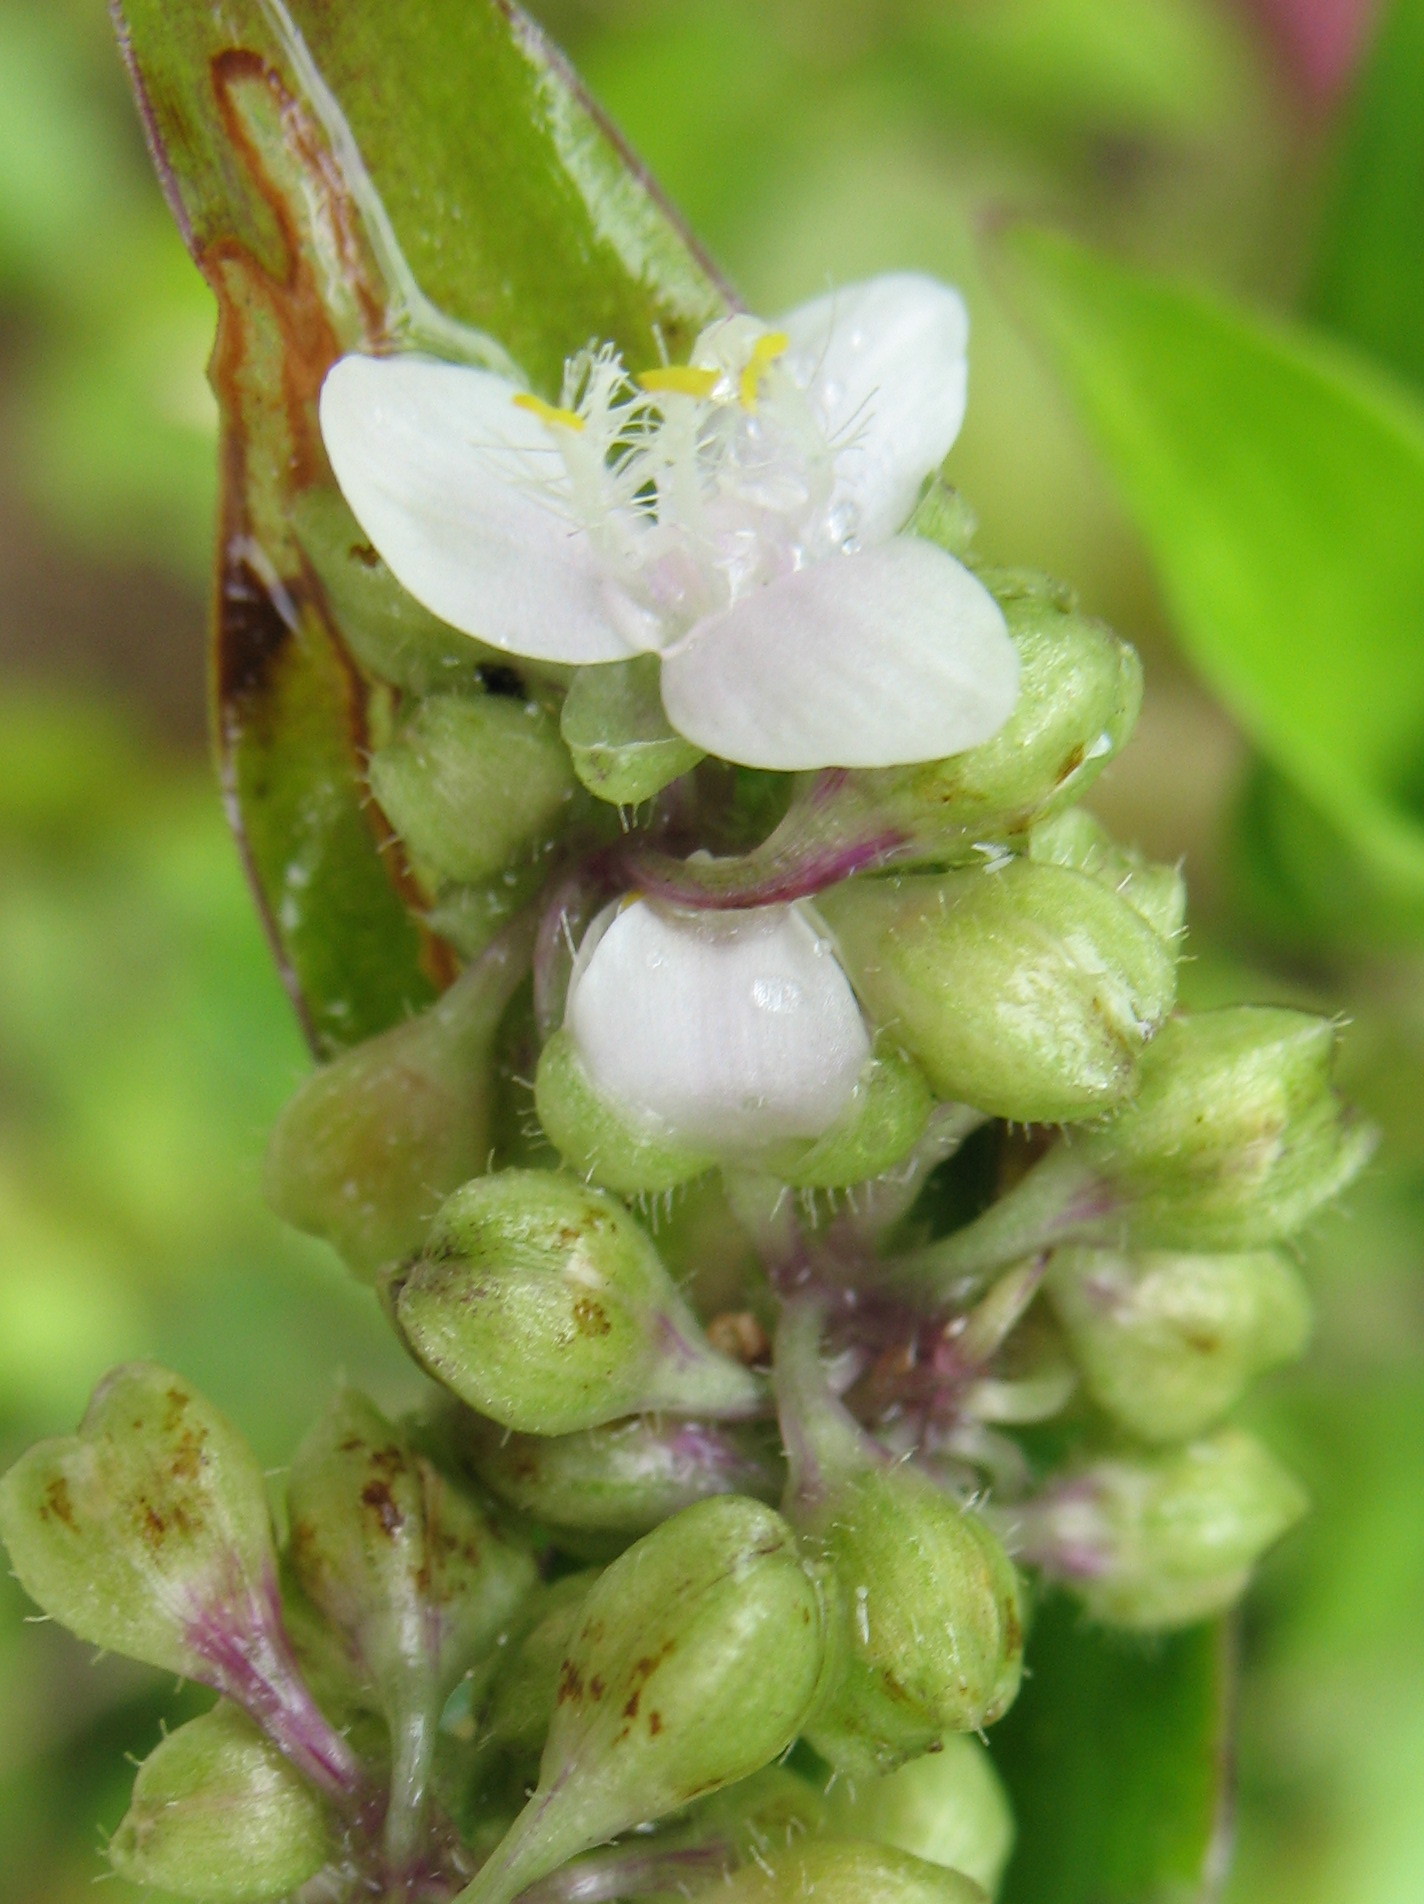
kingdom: Plantae
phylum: Tracheophyta
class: Liliopsida
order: Commelinales
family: Commelinaceae
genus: Callisia
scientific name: Callisia serrulata
